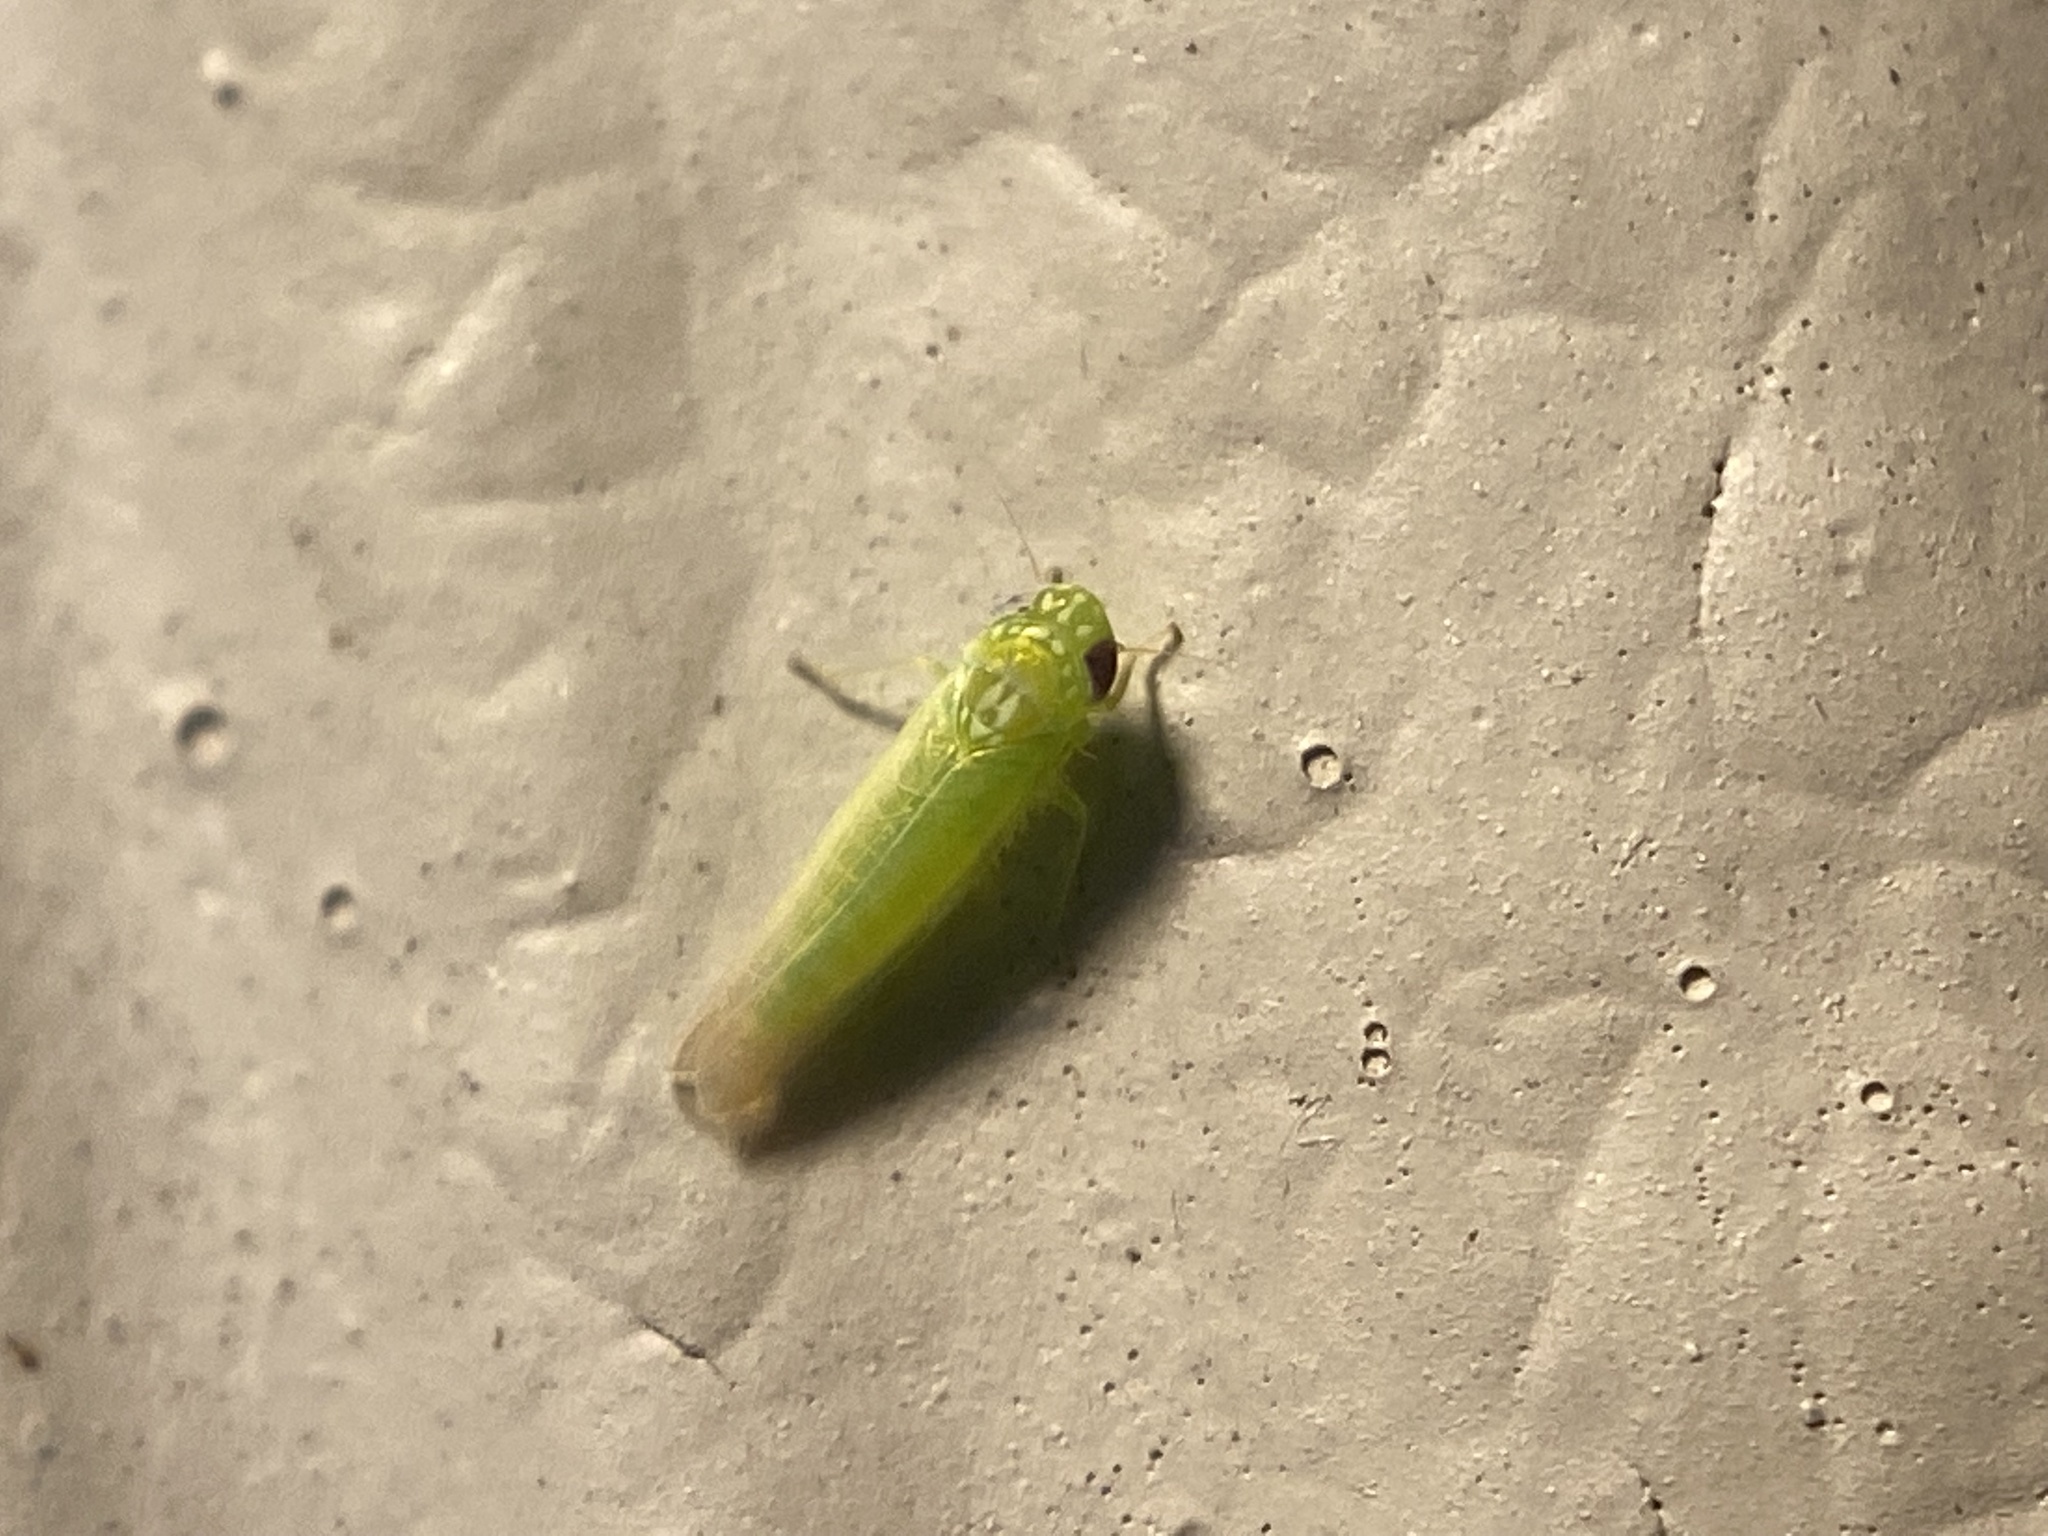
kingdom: Animalia
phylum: Arthropoda
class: Insecta
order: Hemiptera
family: Cicadellidae
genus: Empoasca
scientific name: Empoasca fabae
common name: Potato leafhopper
